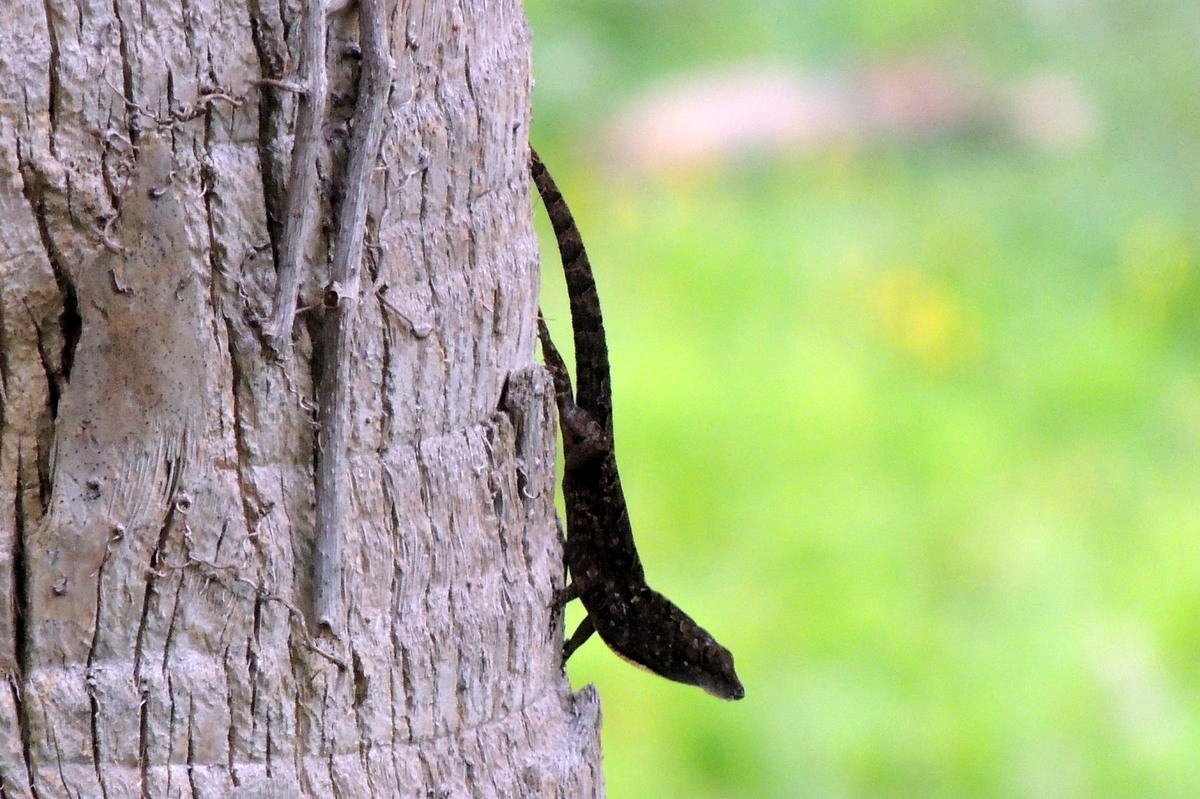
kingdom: Animalia
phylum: Chordata
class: Squamata
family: Dactyloidae
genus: Anolis
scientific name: Anolis sagrei
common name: Brown anole
